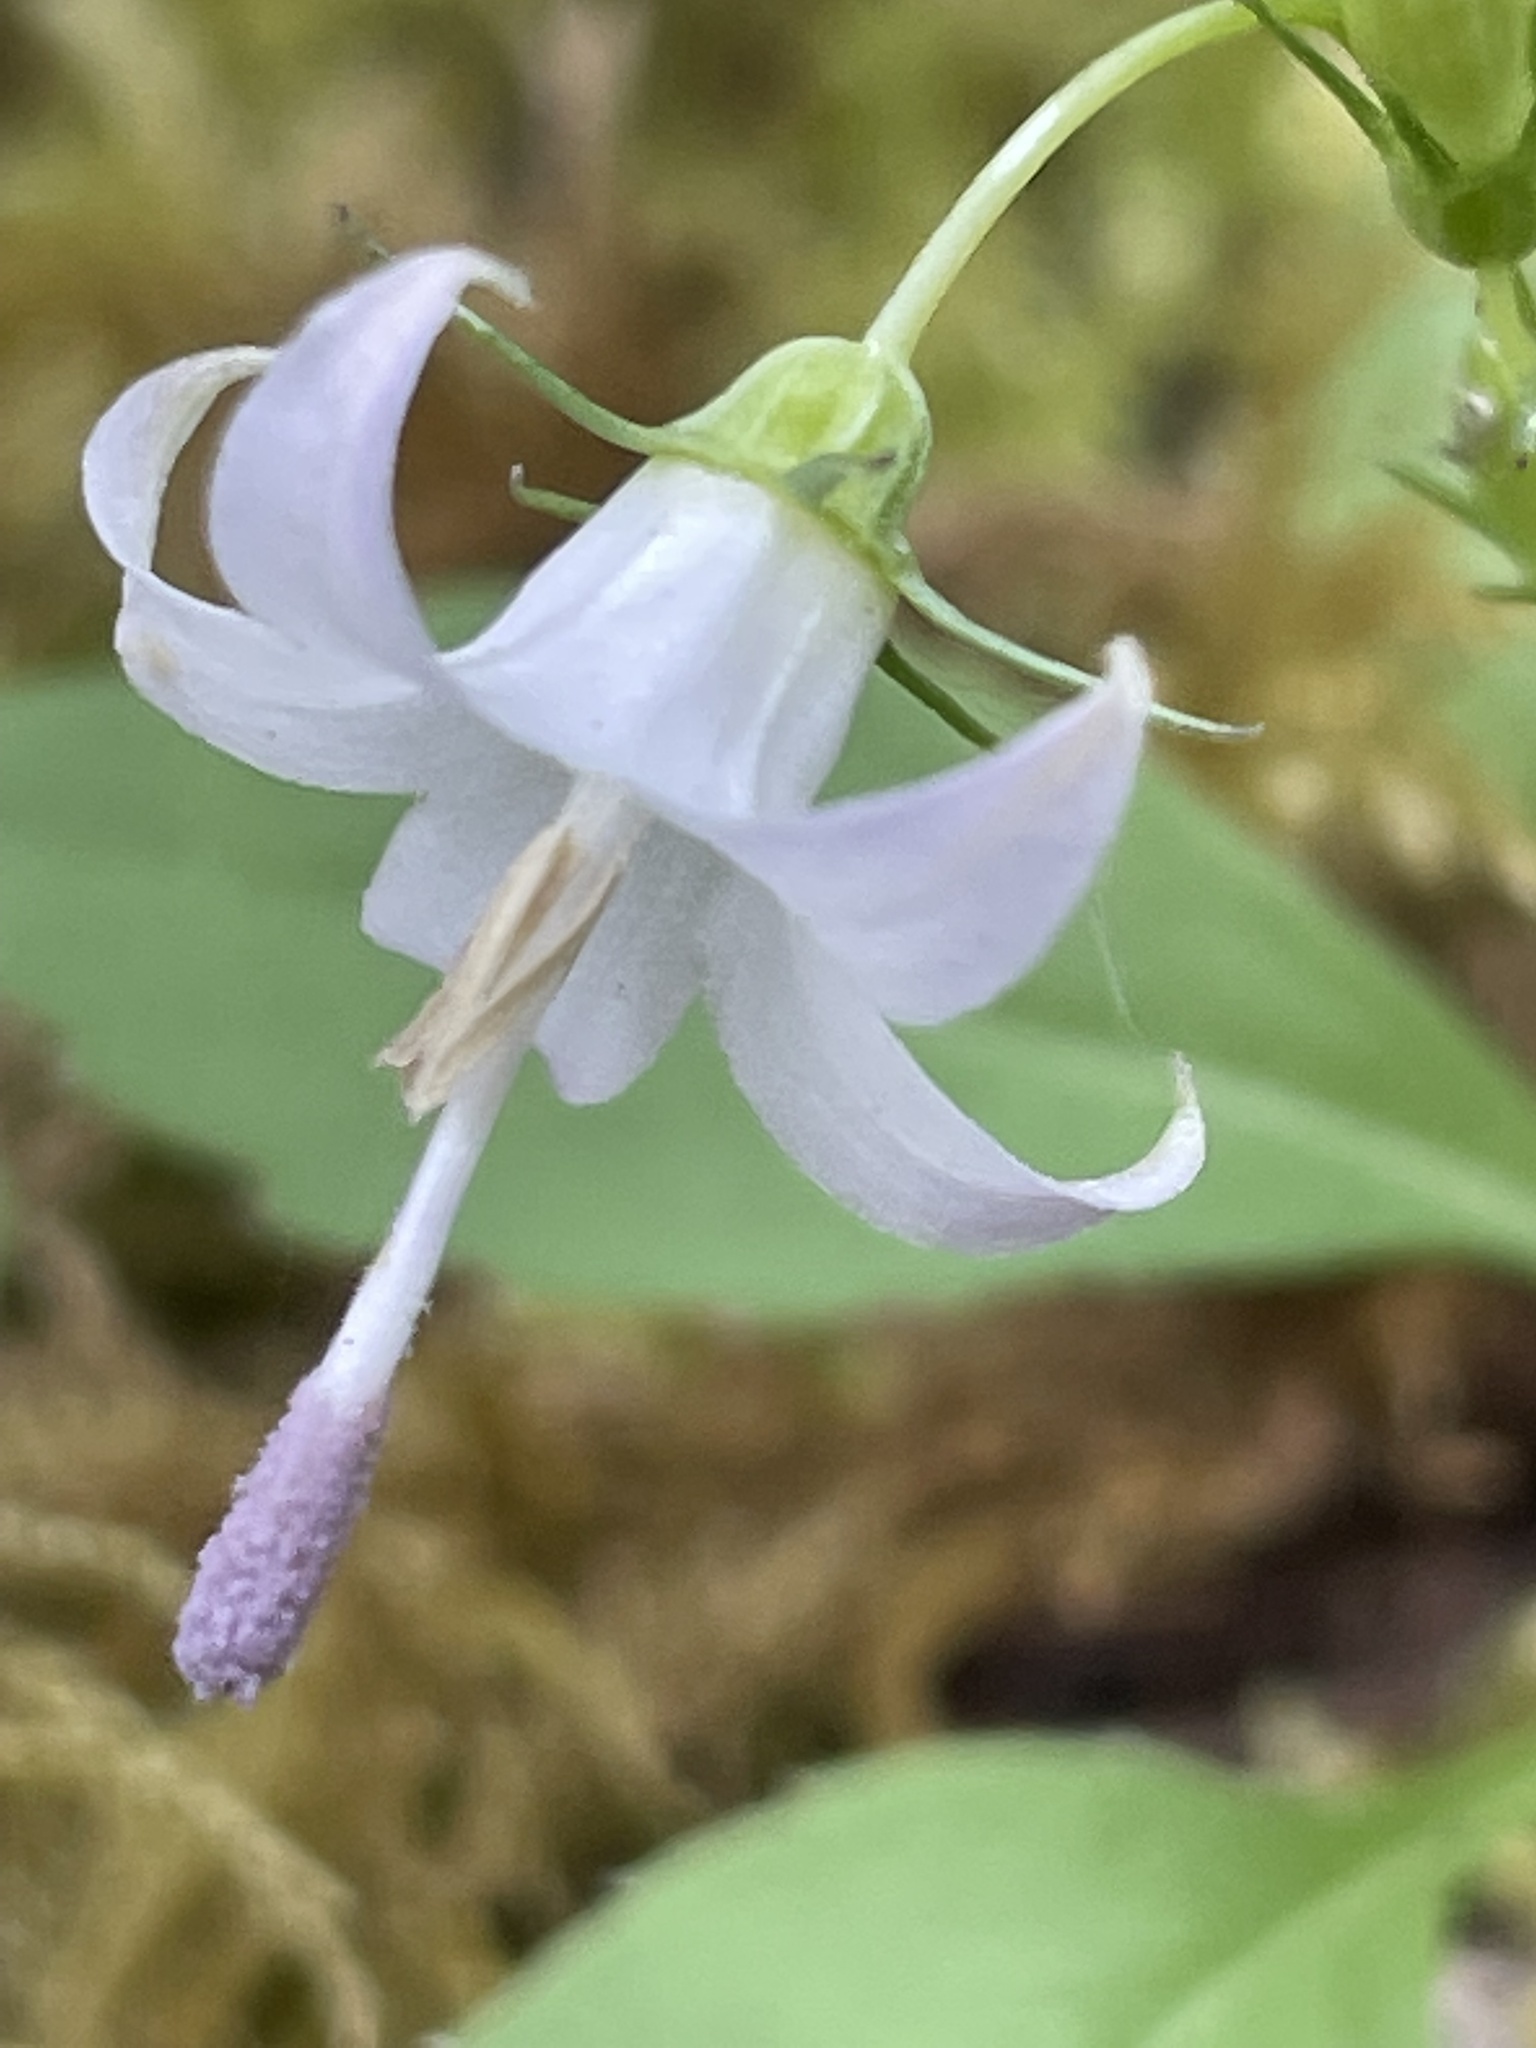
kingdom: Plantae
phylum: Tracheophyta
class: Magnoliopsida
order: Asterales
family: Campanulaceae
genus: Campanula
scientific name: Campanula scouleri
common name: Scouler's harebell
